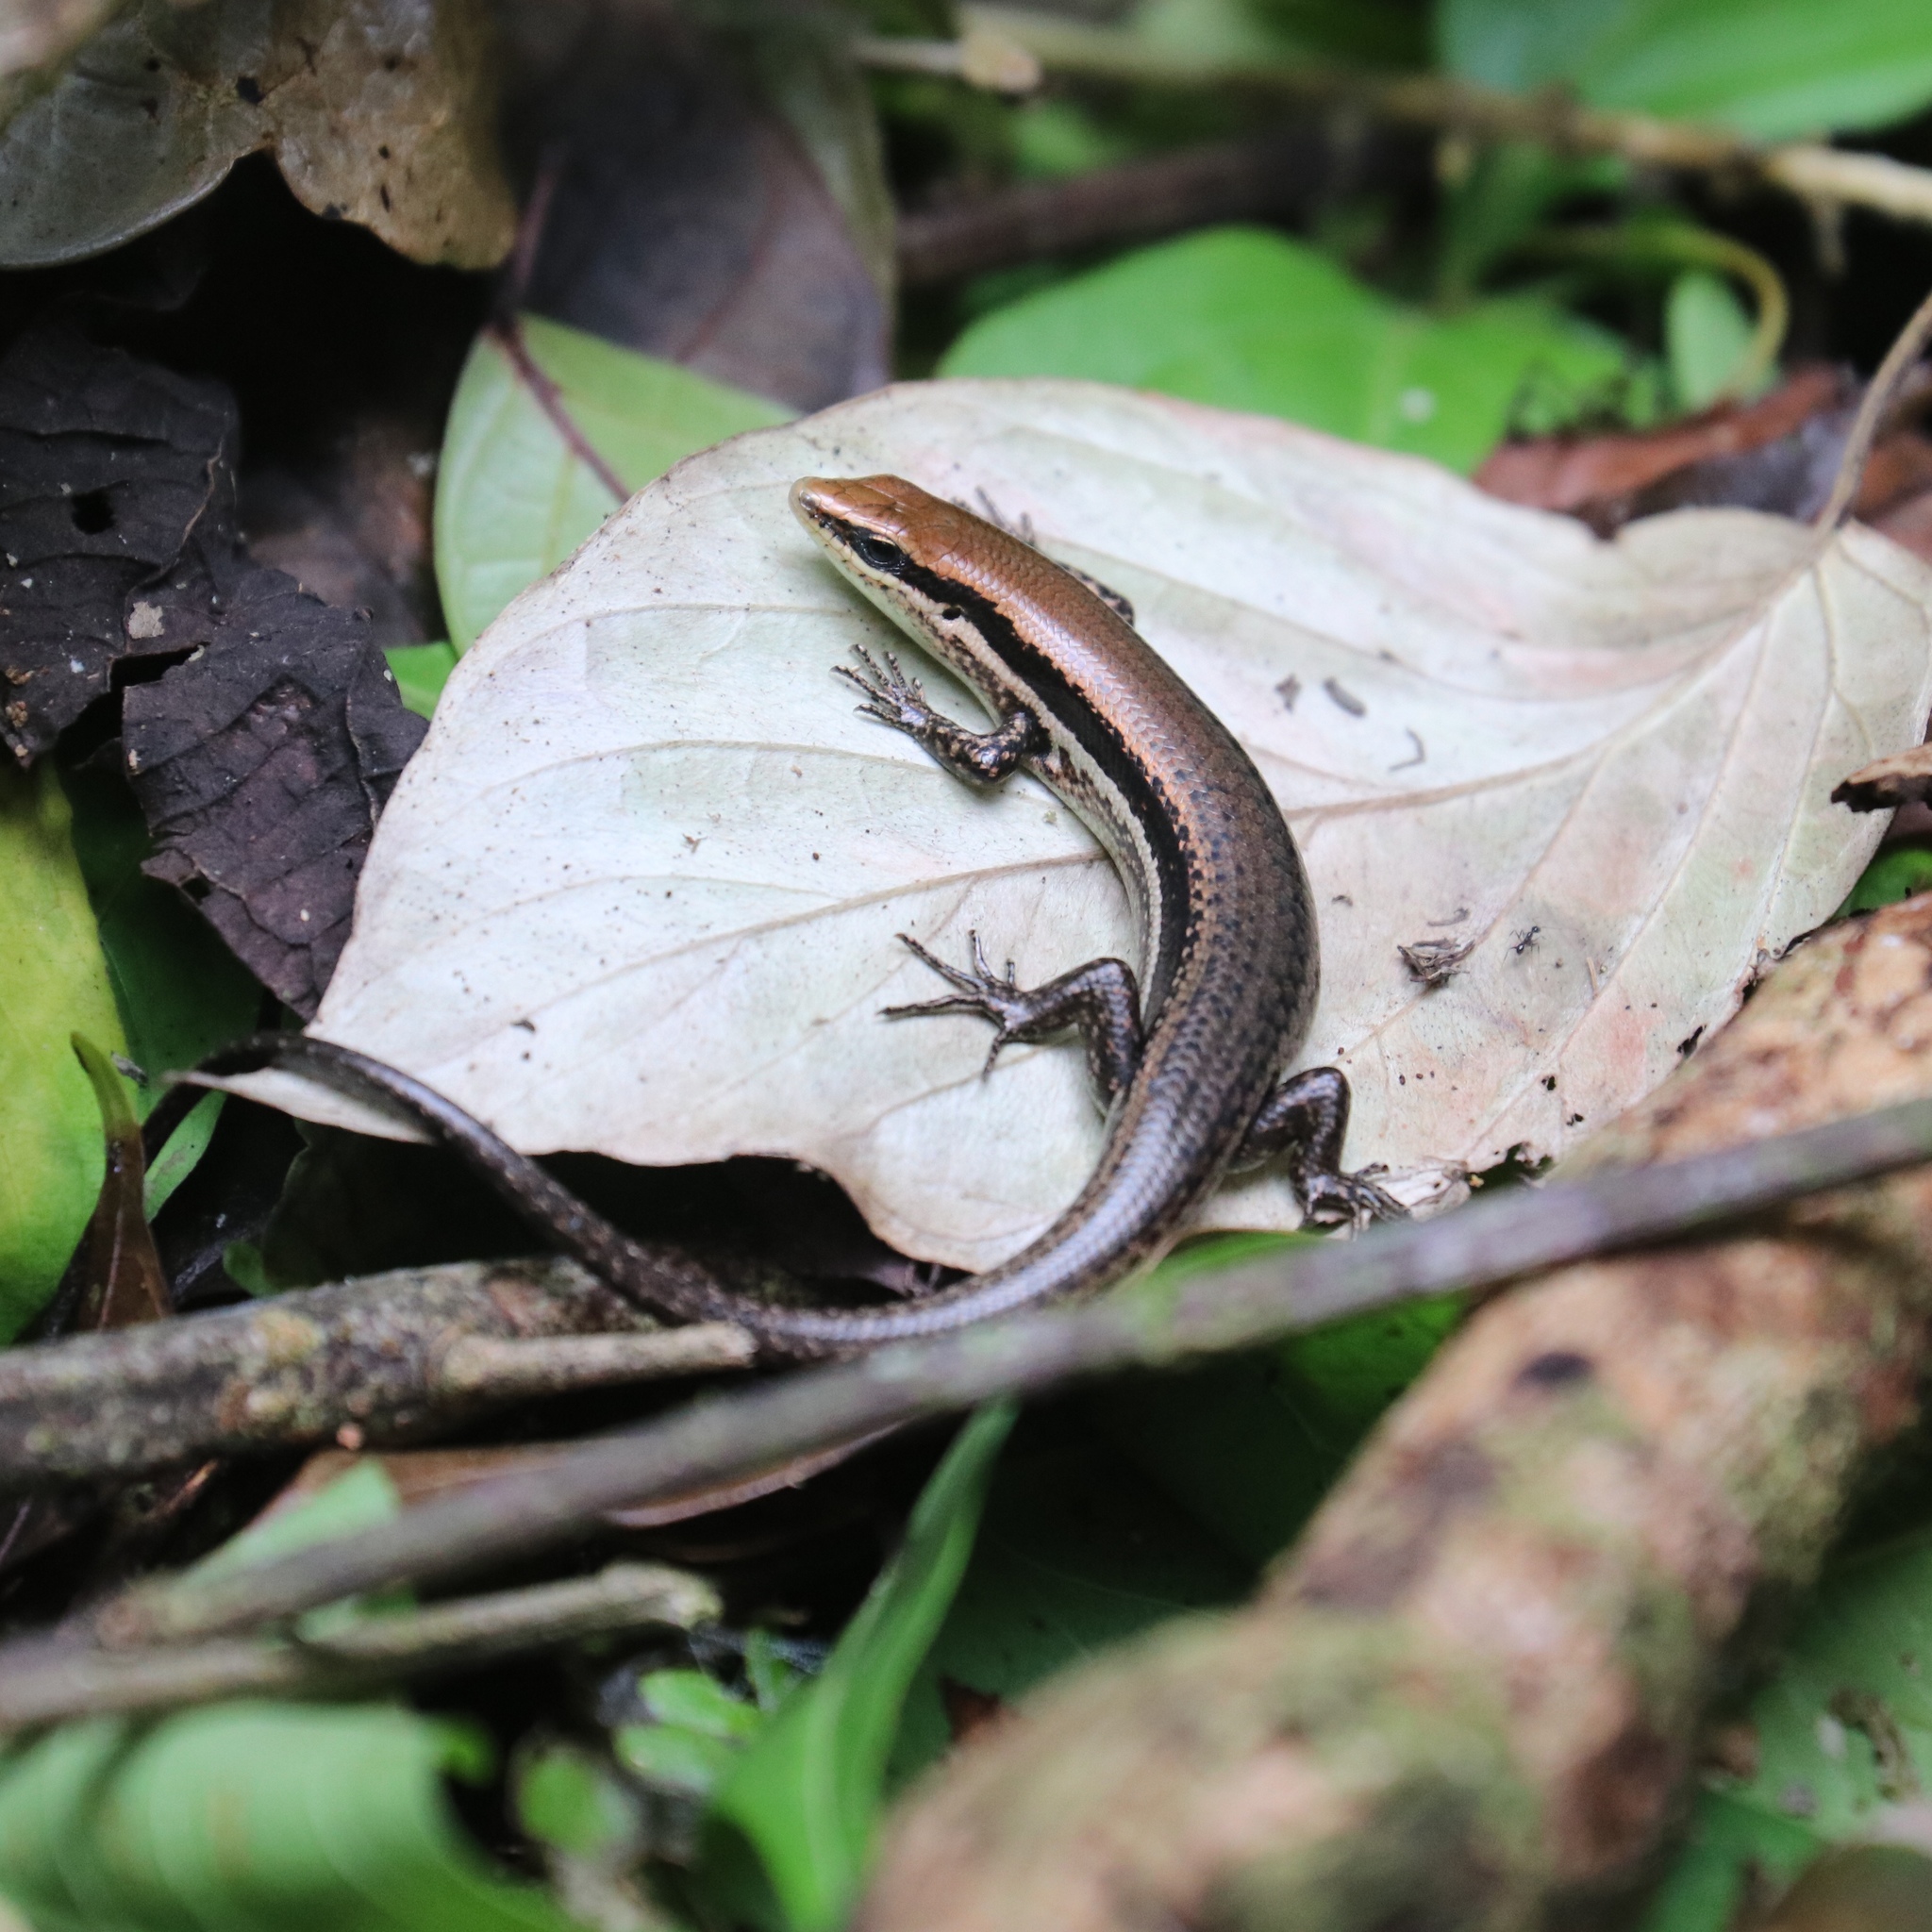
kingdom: Animalia
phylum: Chordata
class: Squamata
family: Scincidae
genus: Marisora
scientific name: Marisora unimarginata
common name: Central american mabuya
